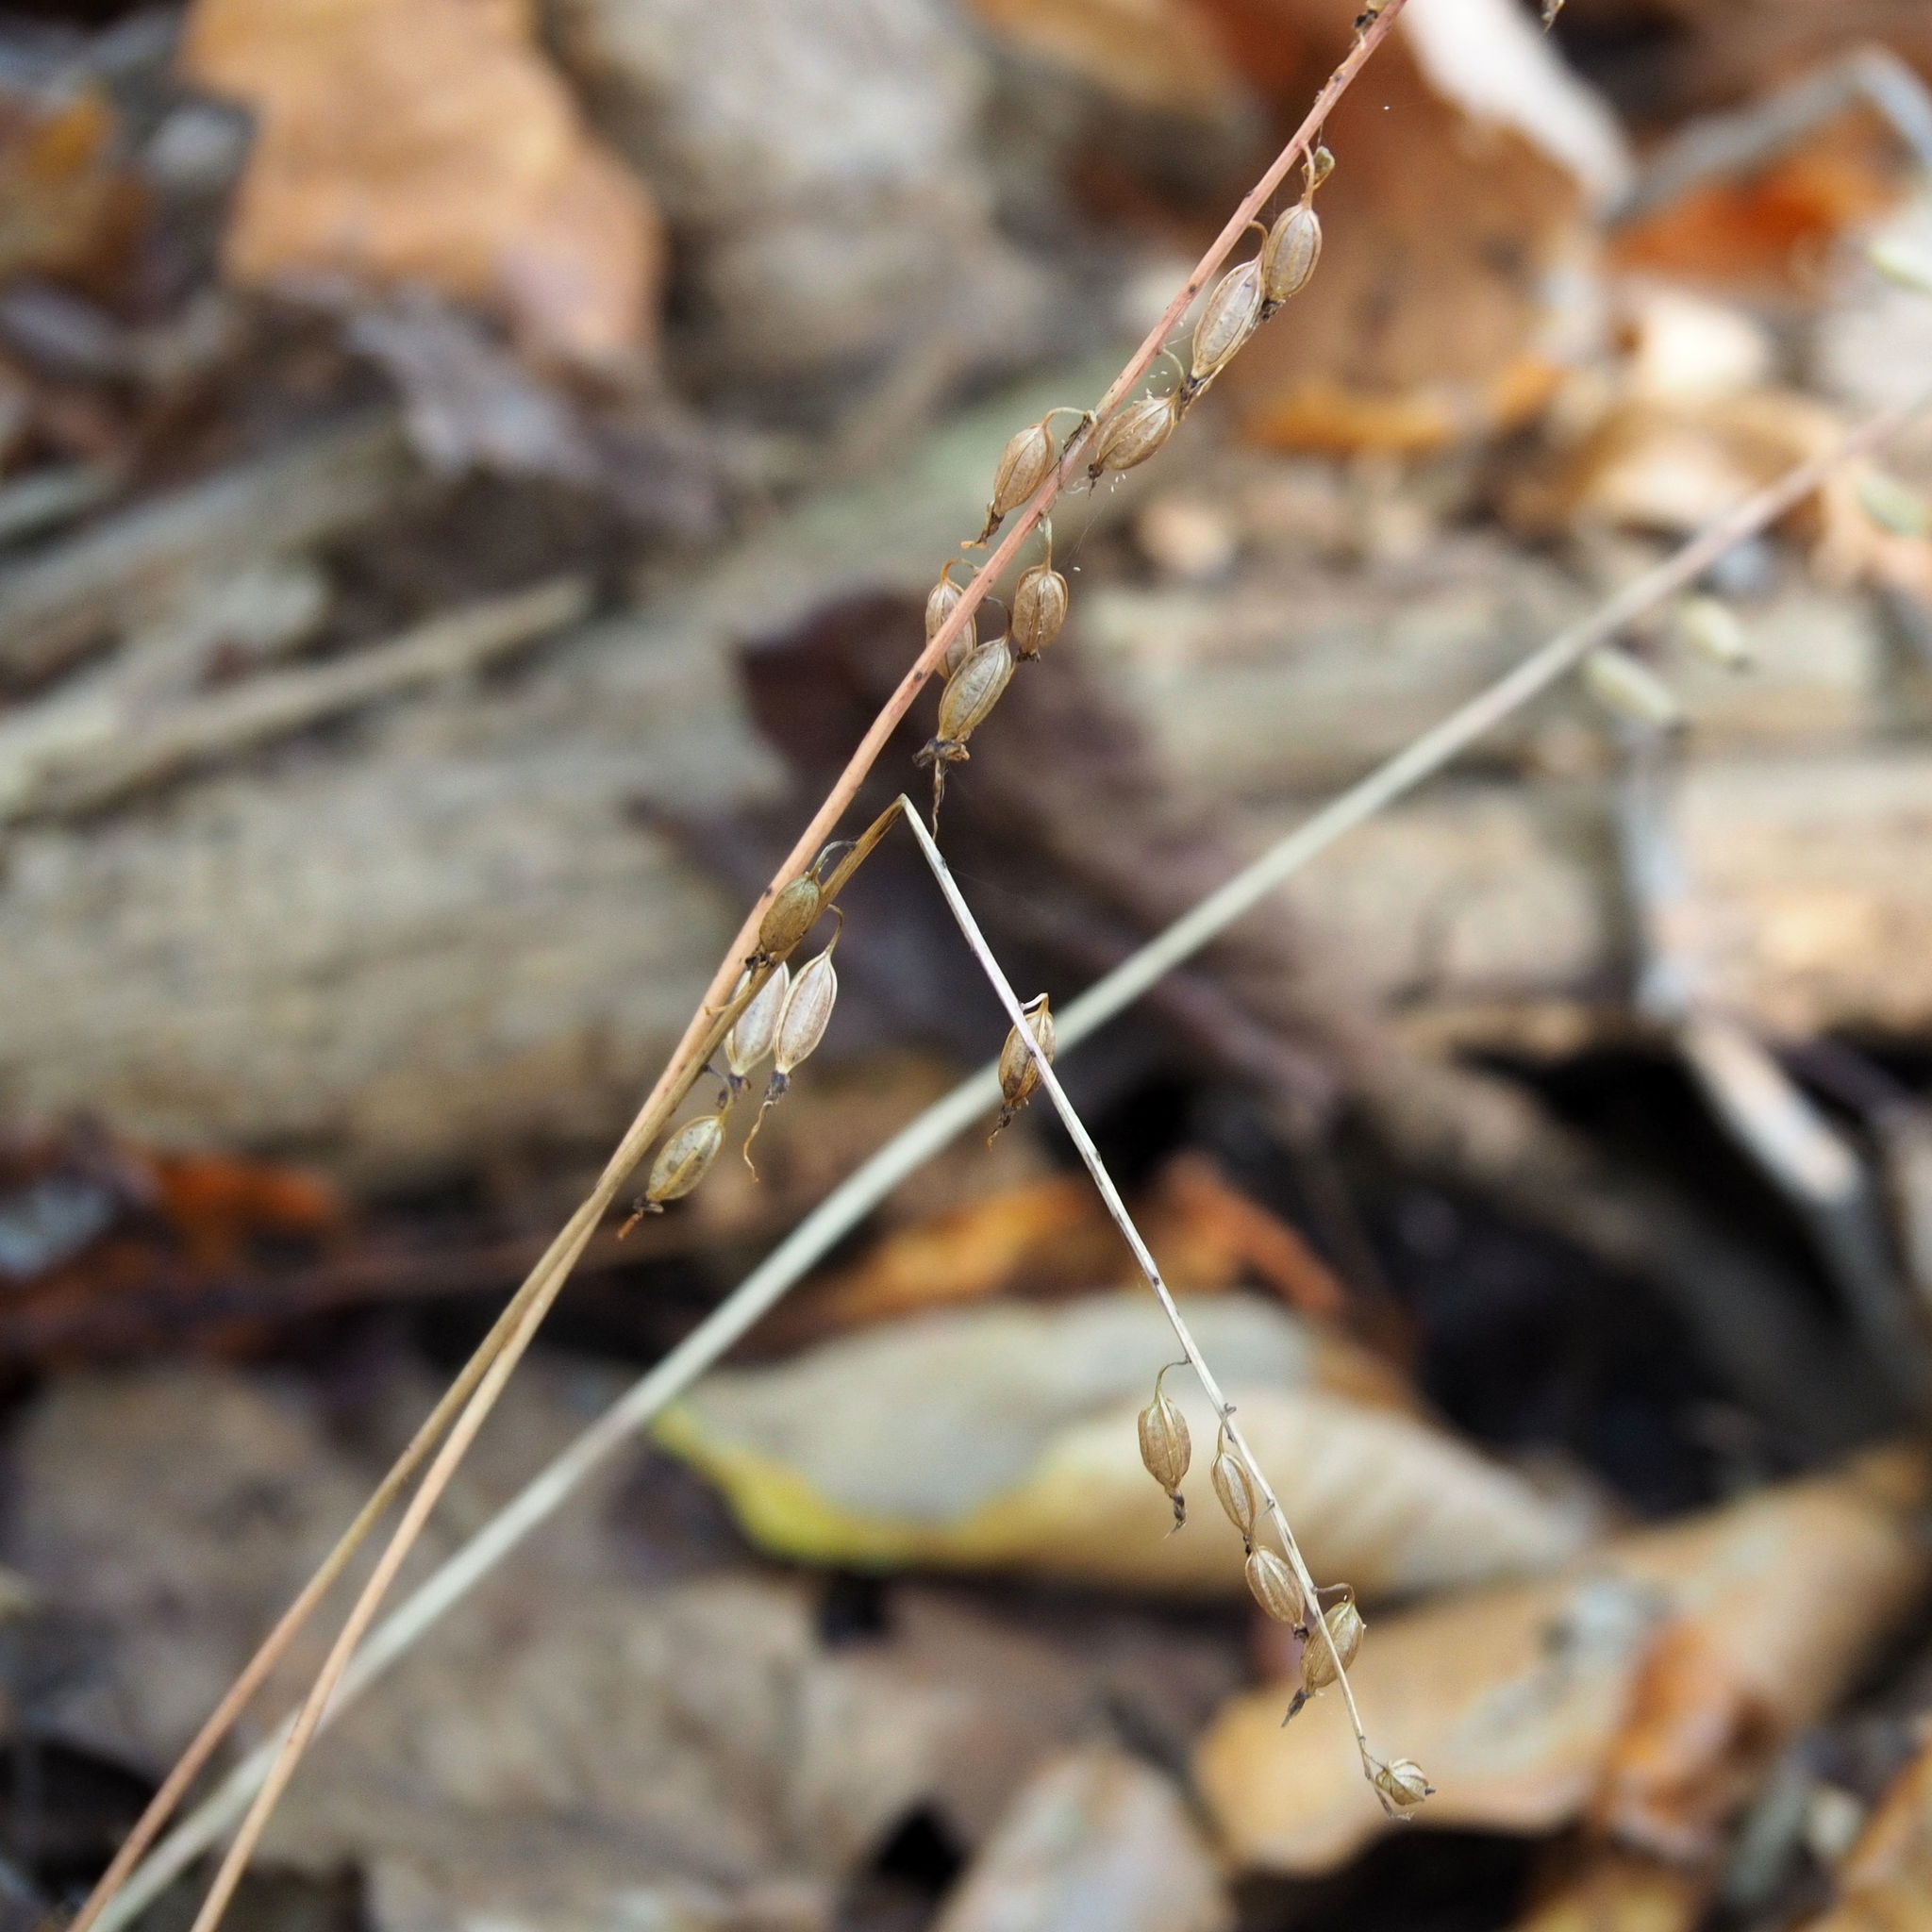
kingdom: Plantae
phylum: Tracheophyta
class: Liliopsida
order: Asparagales
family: Orchidaceae
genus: Tipularia
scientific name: Tipularia discolor
